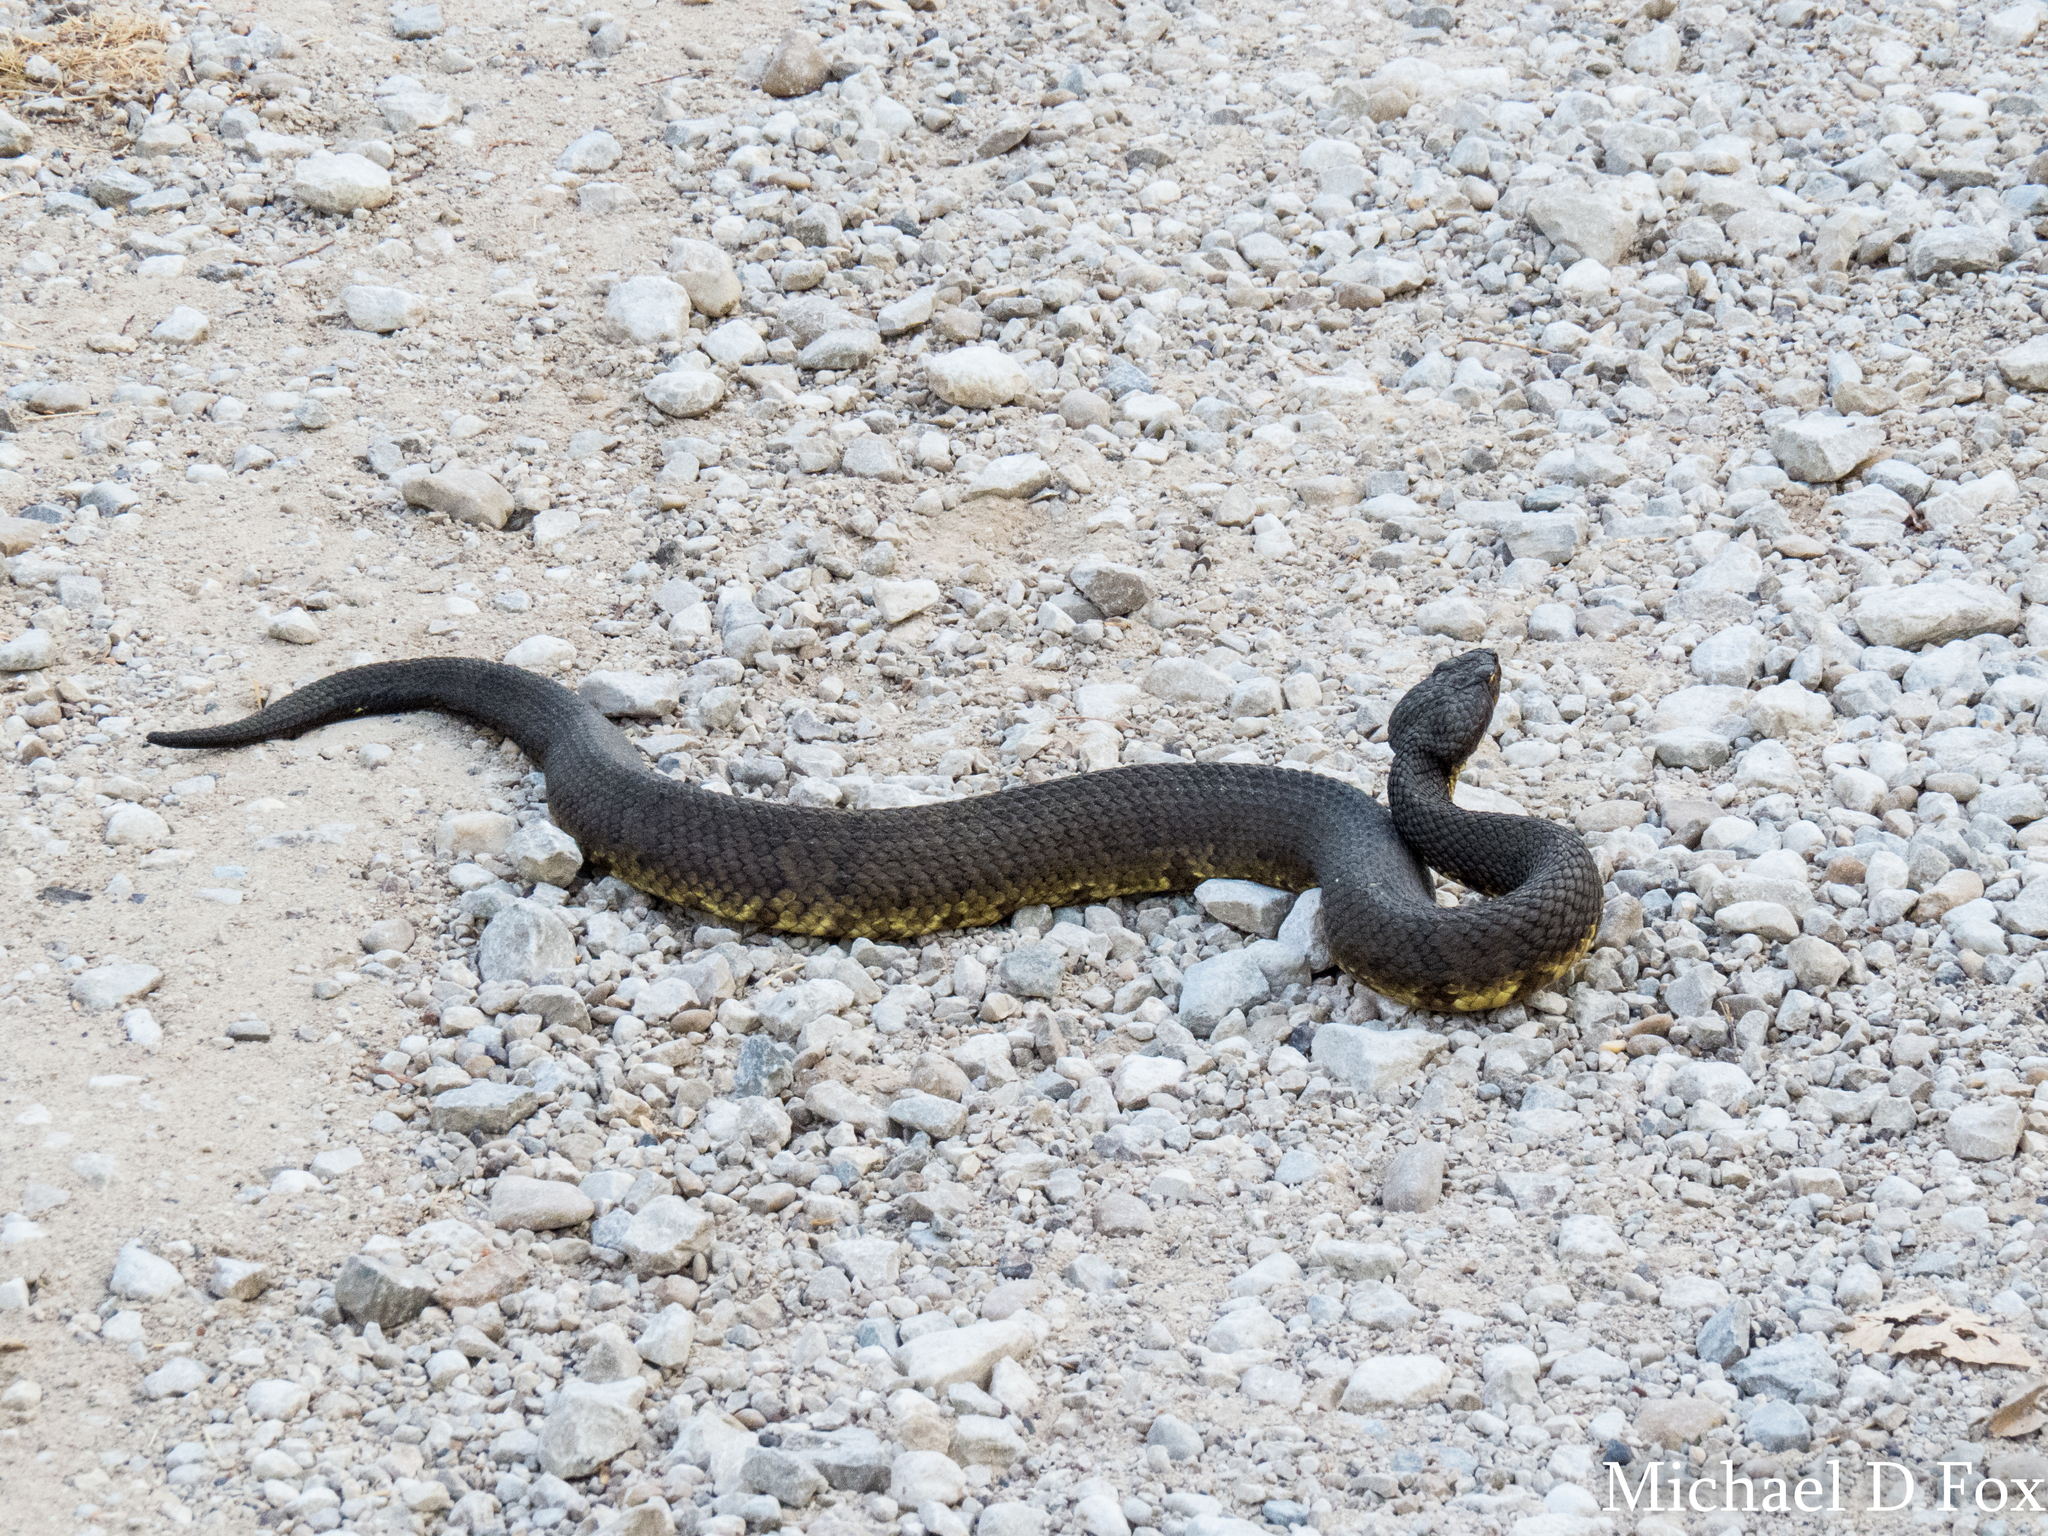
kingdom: Animalia
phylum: Chordata
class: Squamata
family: Viperidae
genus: Agkistrodon
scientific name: Agkistrodon piscivorus
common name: Cottonmouth
